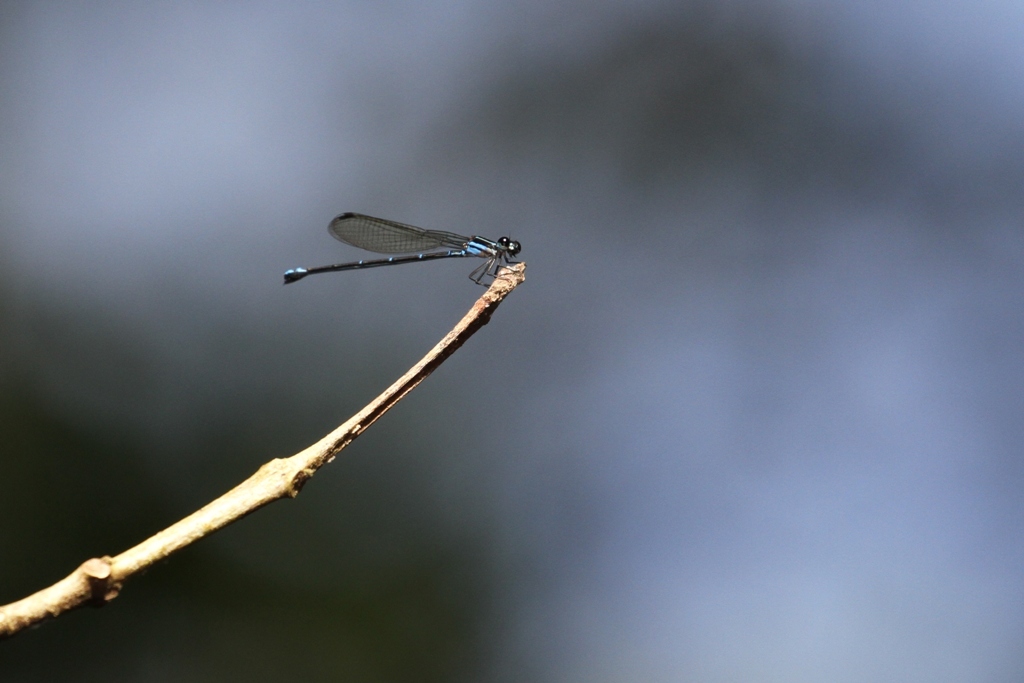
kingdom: Animalia
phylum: Arthropoda
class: Insecta
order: Odonata
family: Coenagrionidae
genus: Argia
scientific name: Argia oculata
